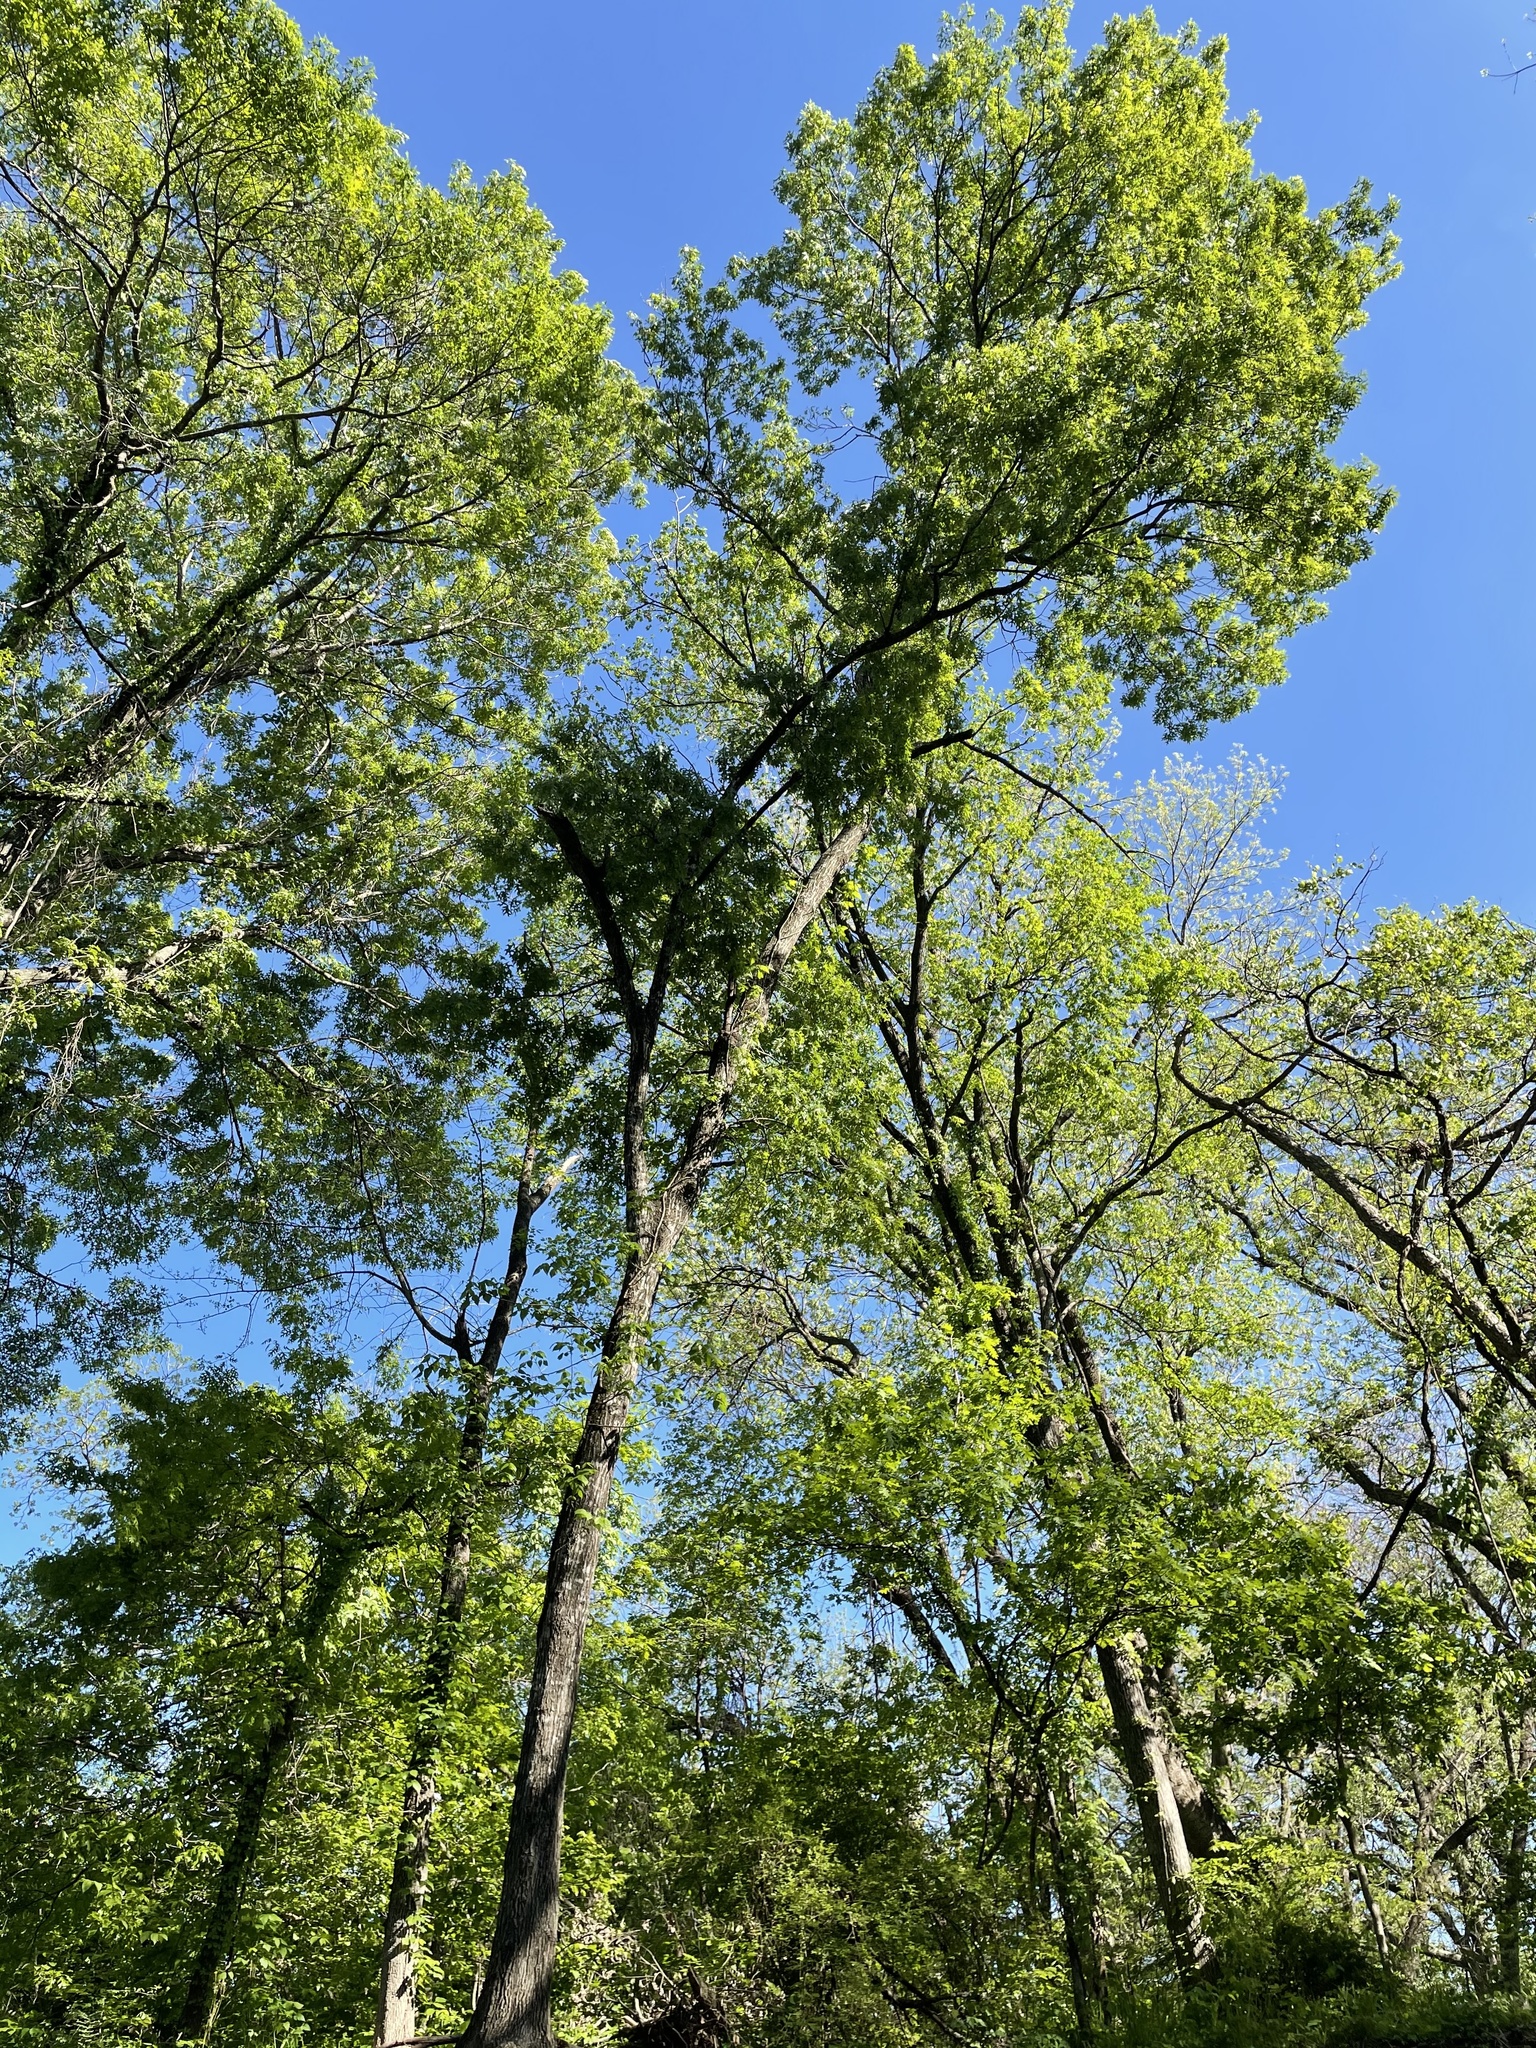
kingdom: Animalia
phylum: Chordata
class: Aves
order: Passeriformes
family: Paridae
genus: Baeolophus
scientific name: Baeolophus bicolor
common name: Tufted titmouse
